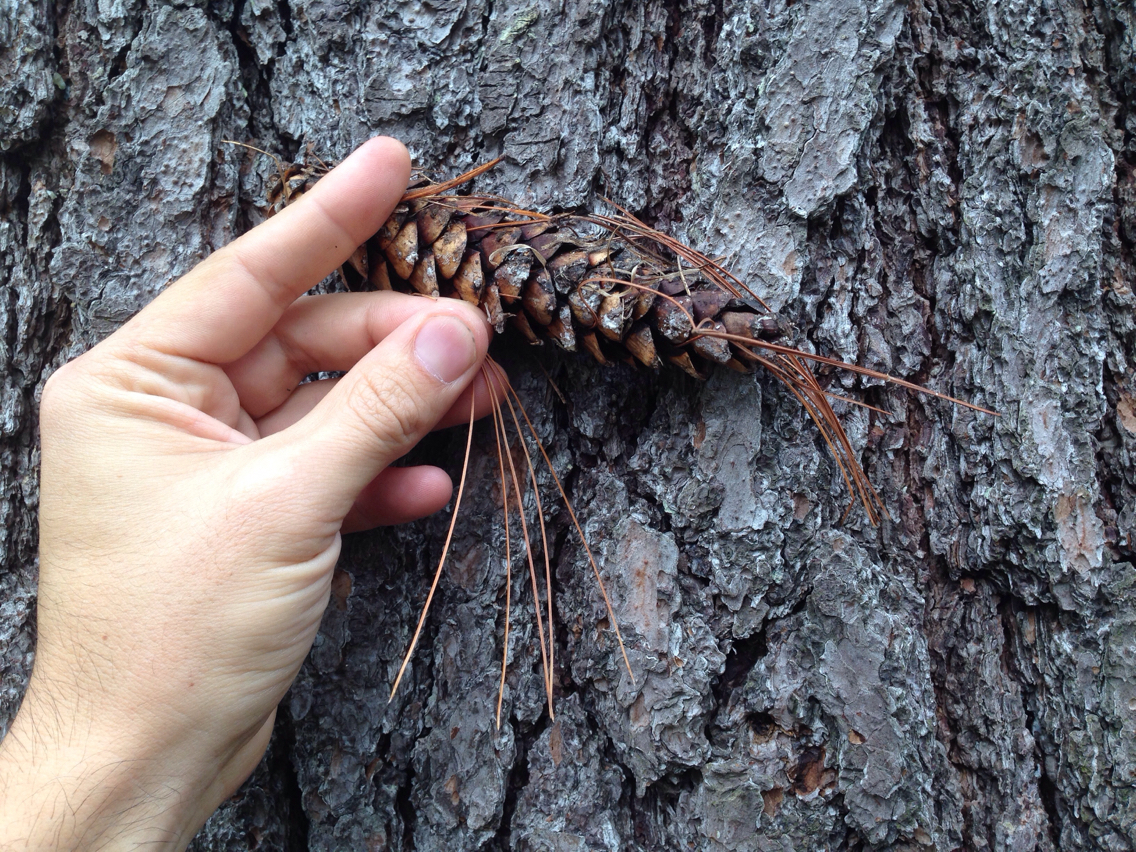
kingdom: Plantae
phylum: Tracheophyta
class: Pinopsida
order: Pinales
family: Pinaceae
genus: Pinus
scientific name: Pinus strobus
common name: Weymouth pine
